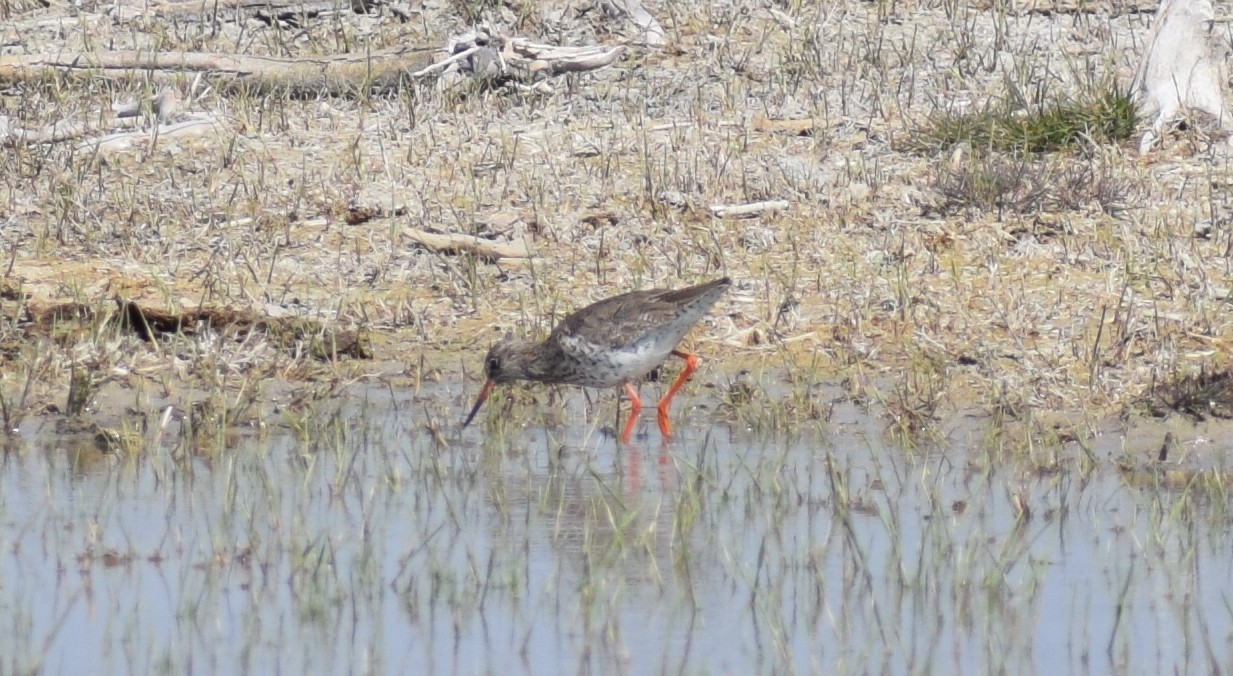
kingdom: Animalia
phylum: Chordata
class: Aves
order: Charadriiformes
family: Scolopacidae
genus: Tringa
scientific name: Tringa totanus
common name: Common redshank
